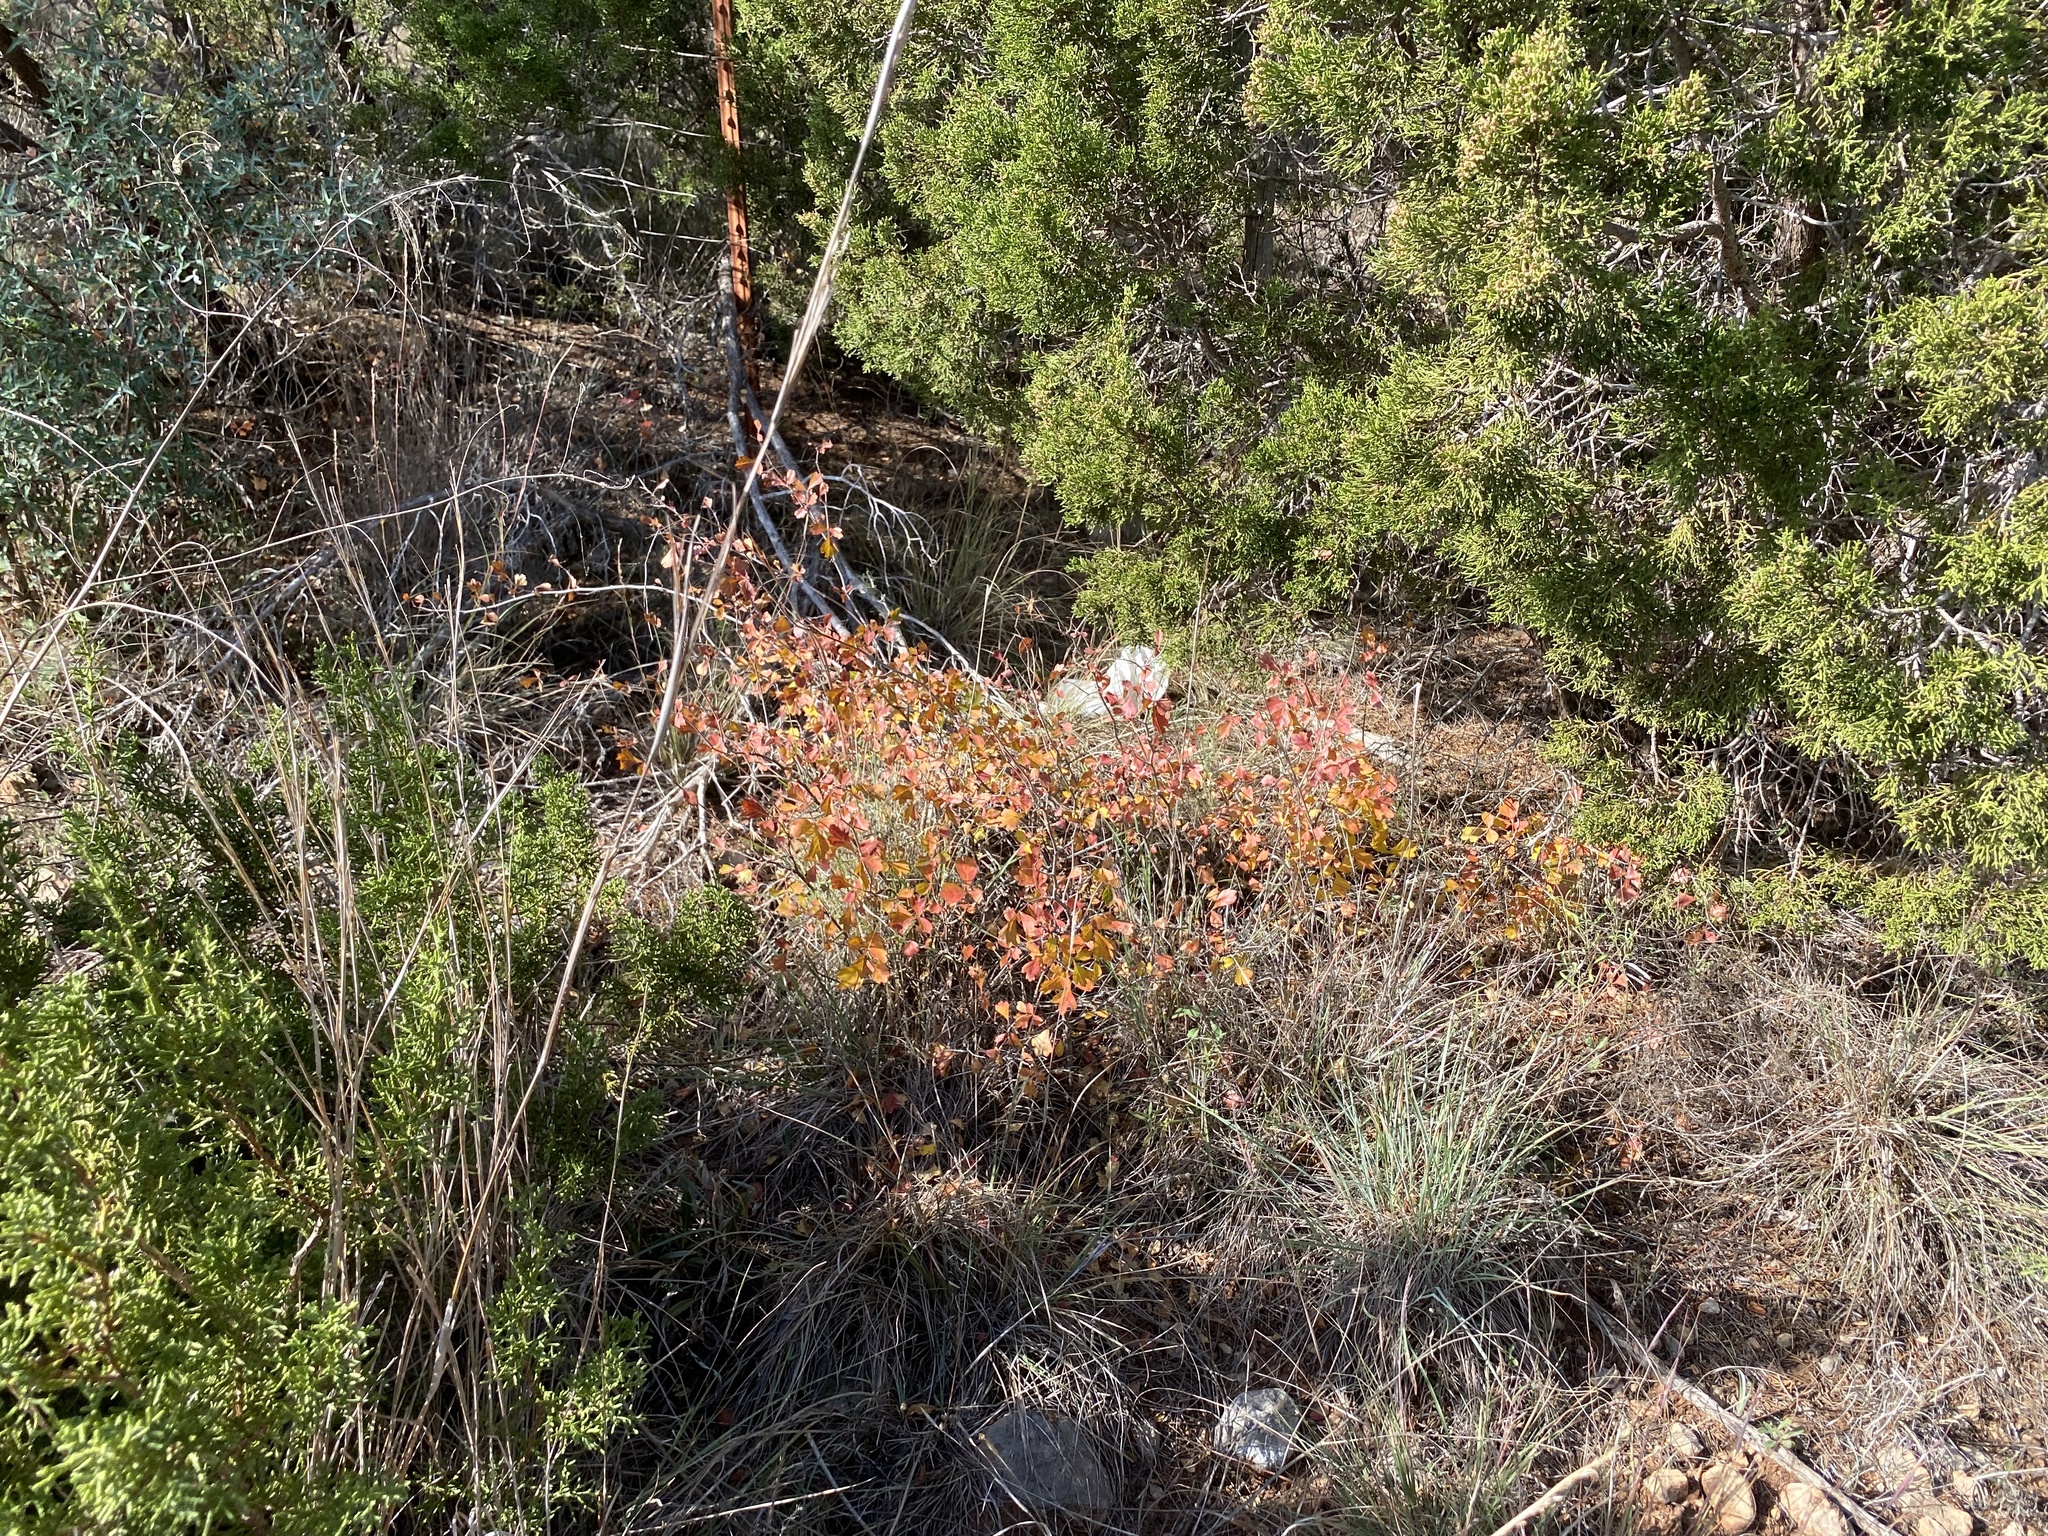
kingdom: Plantae
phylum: Tracheophyta
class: Magnoliopsida
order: Sapindales
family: Anacardiaceae
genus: Rhus
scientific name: Rhus aromatica
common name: Aromatic sumac
